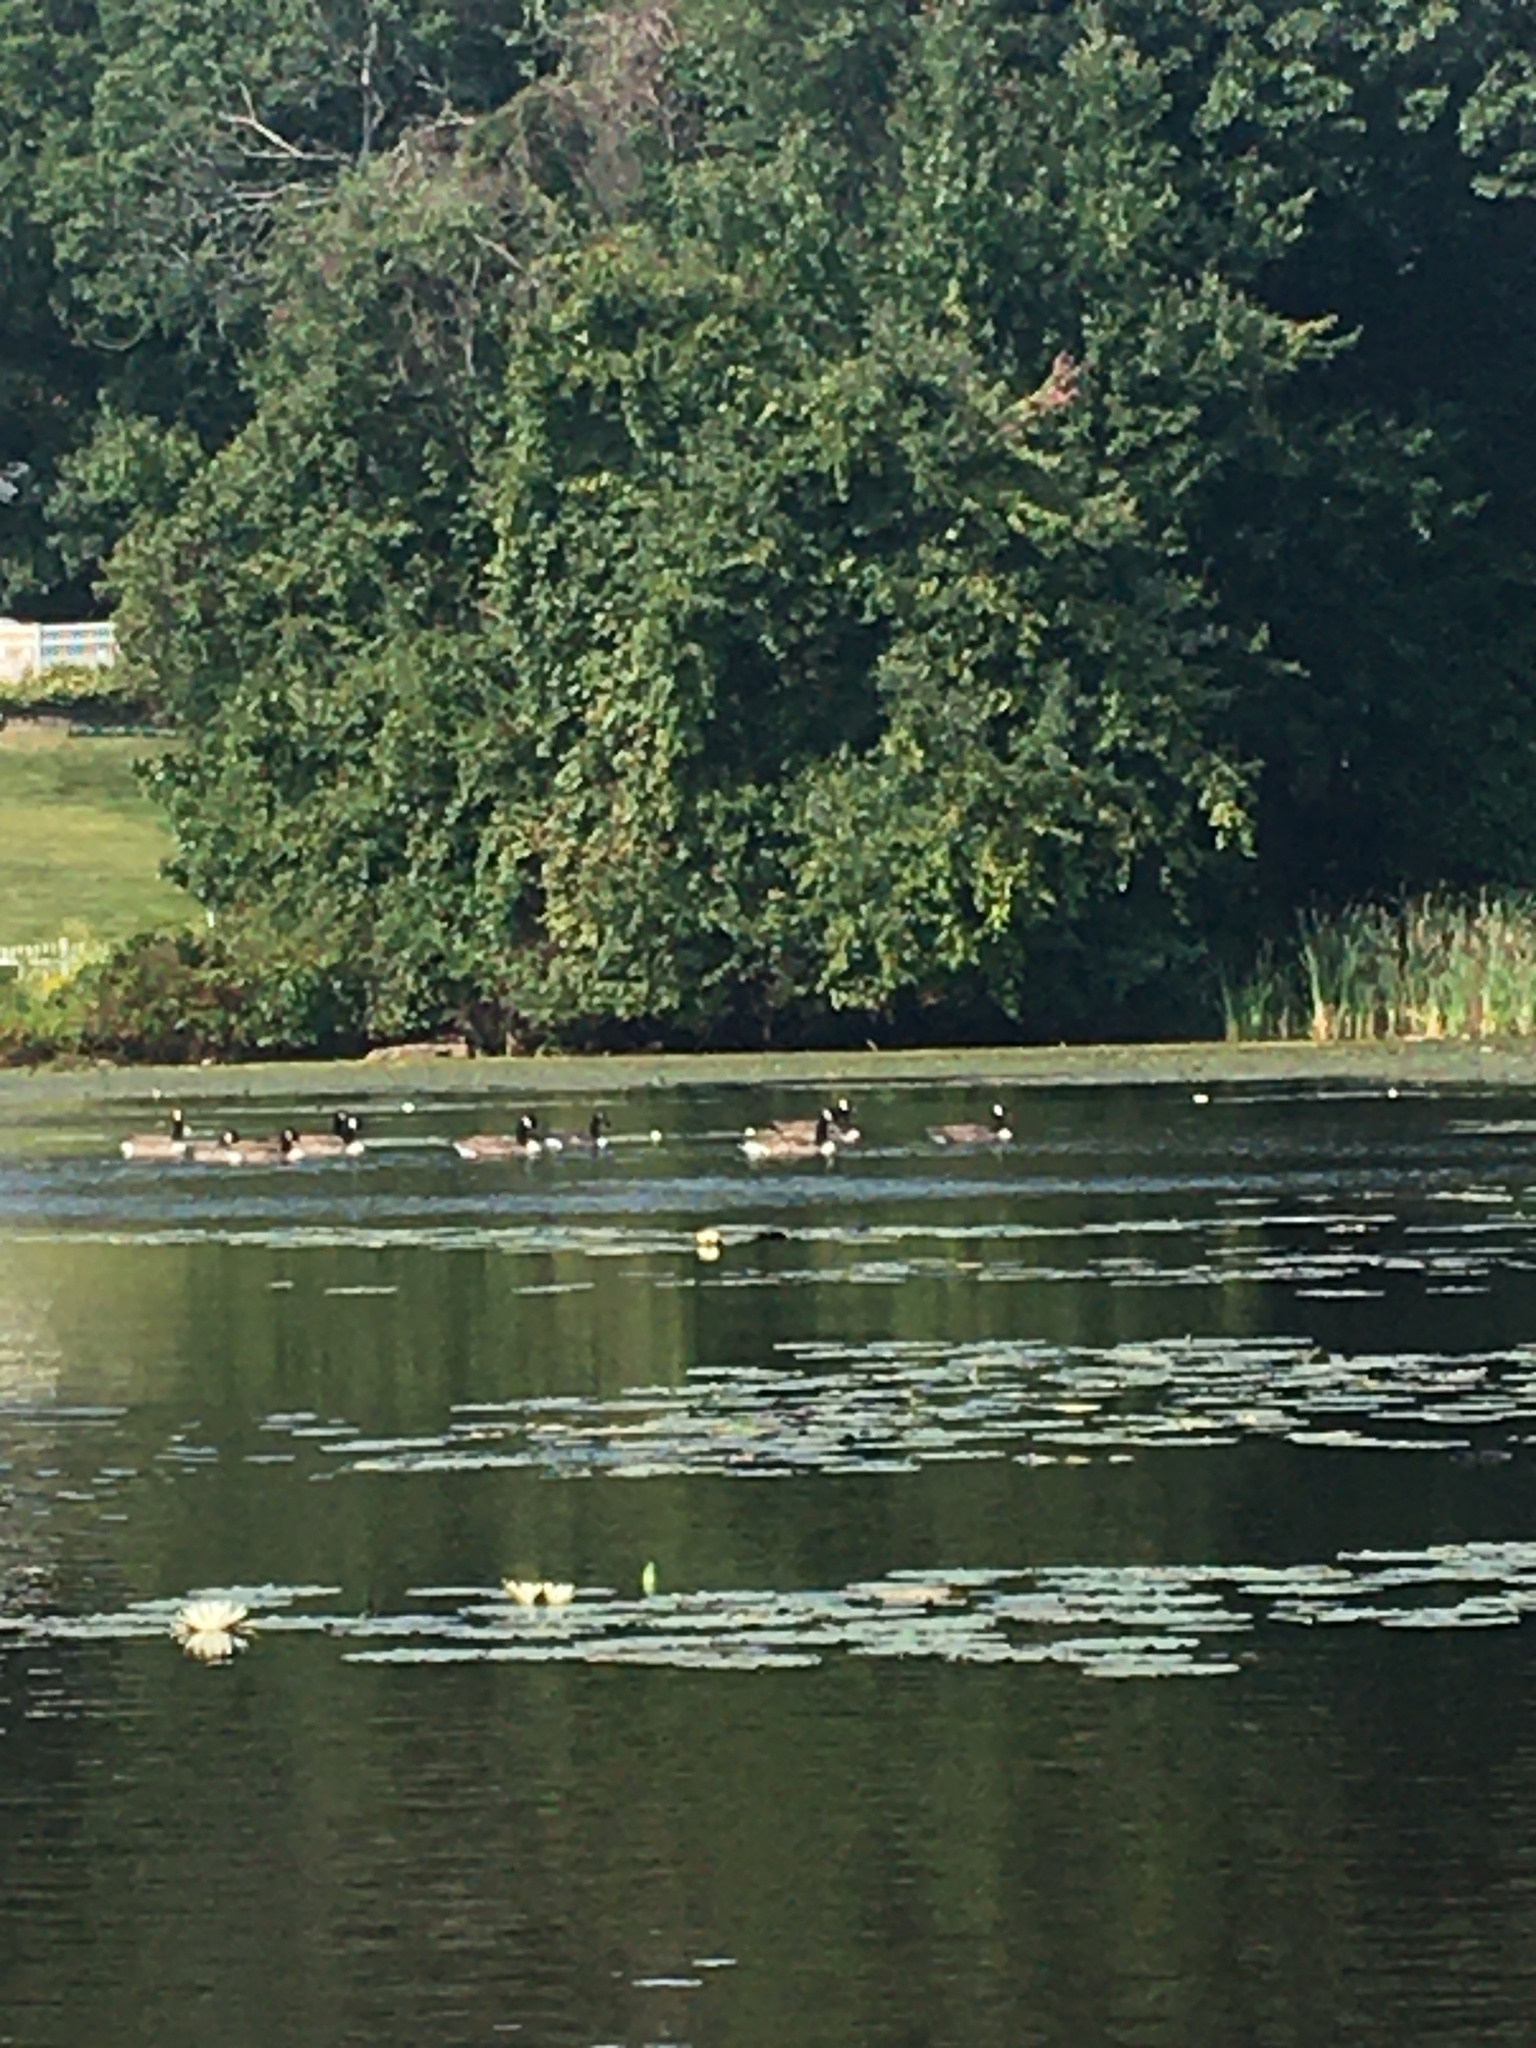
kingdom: Animalia
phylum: Chordata
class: Aves
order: Anseriformes
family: Anatidae
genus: Branta
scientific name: Branta canadensis
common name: Canada goose
